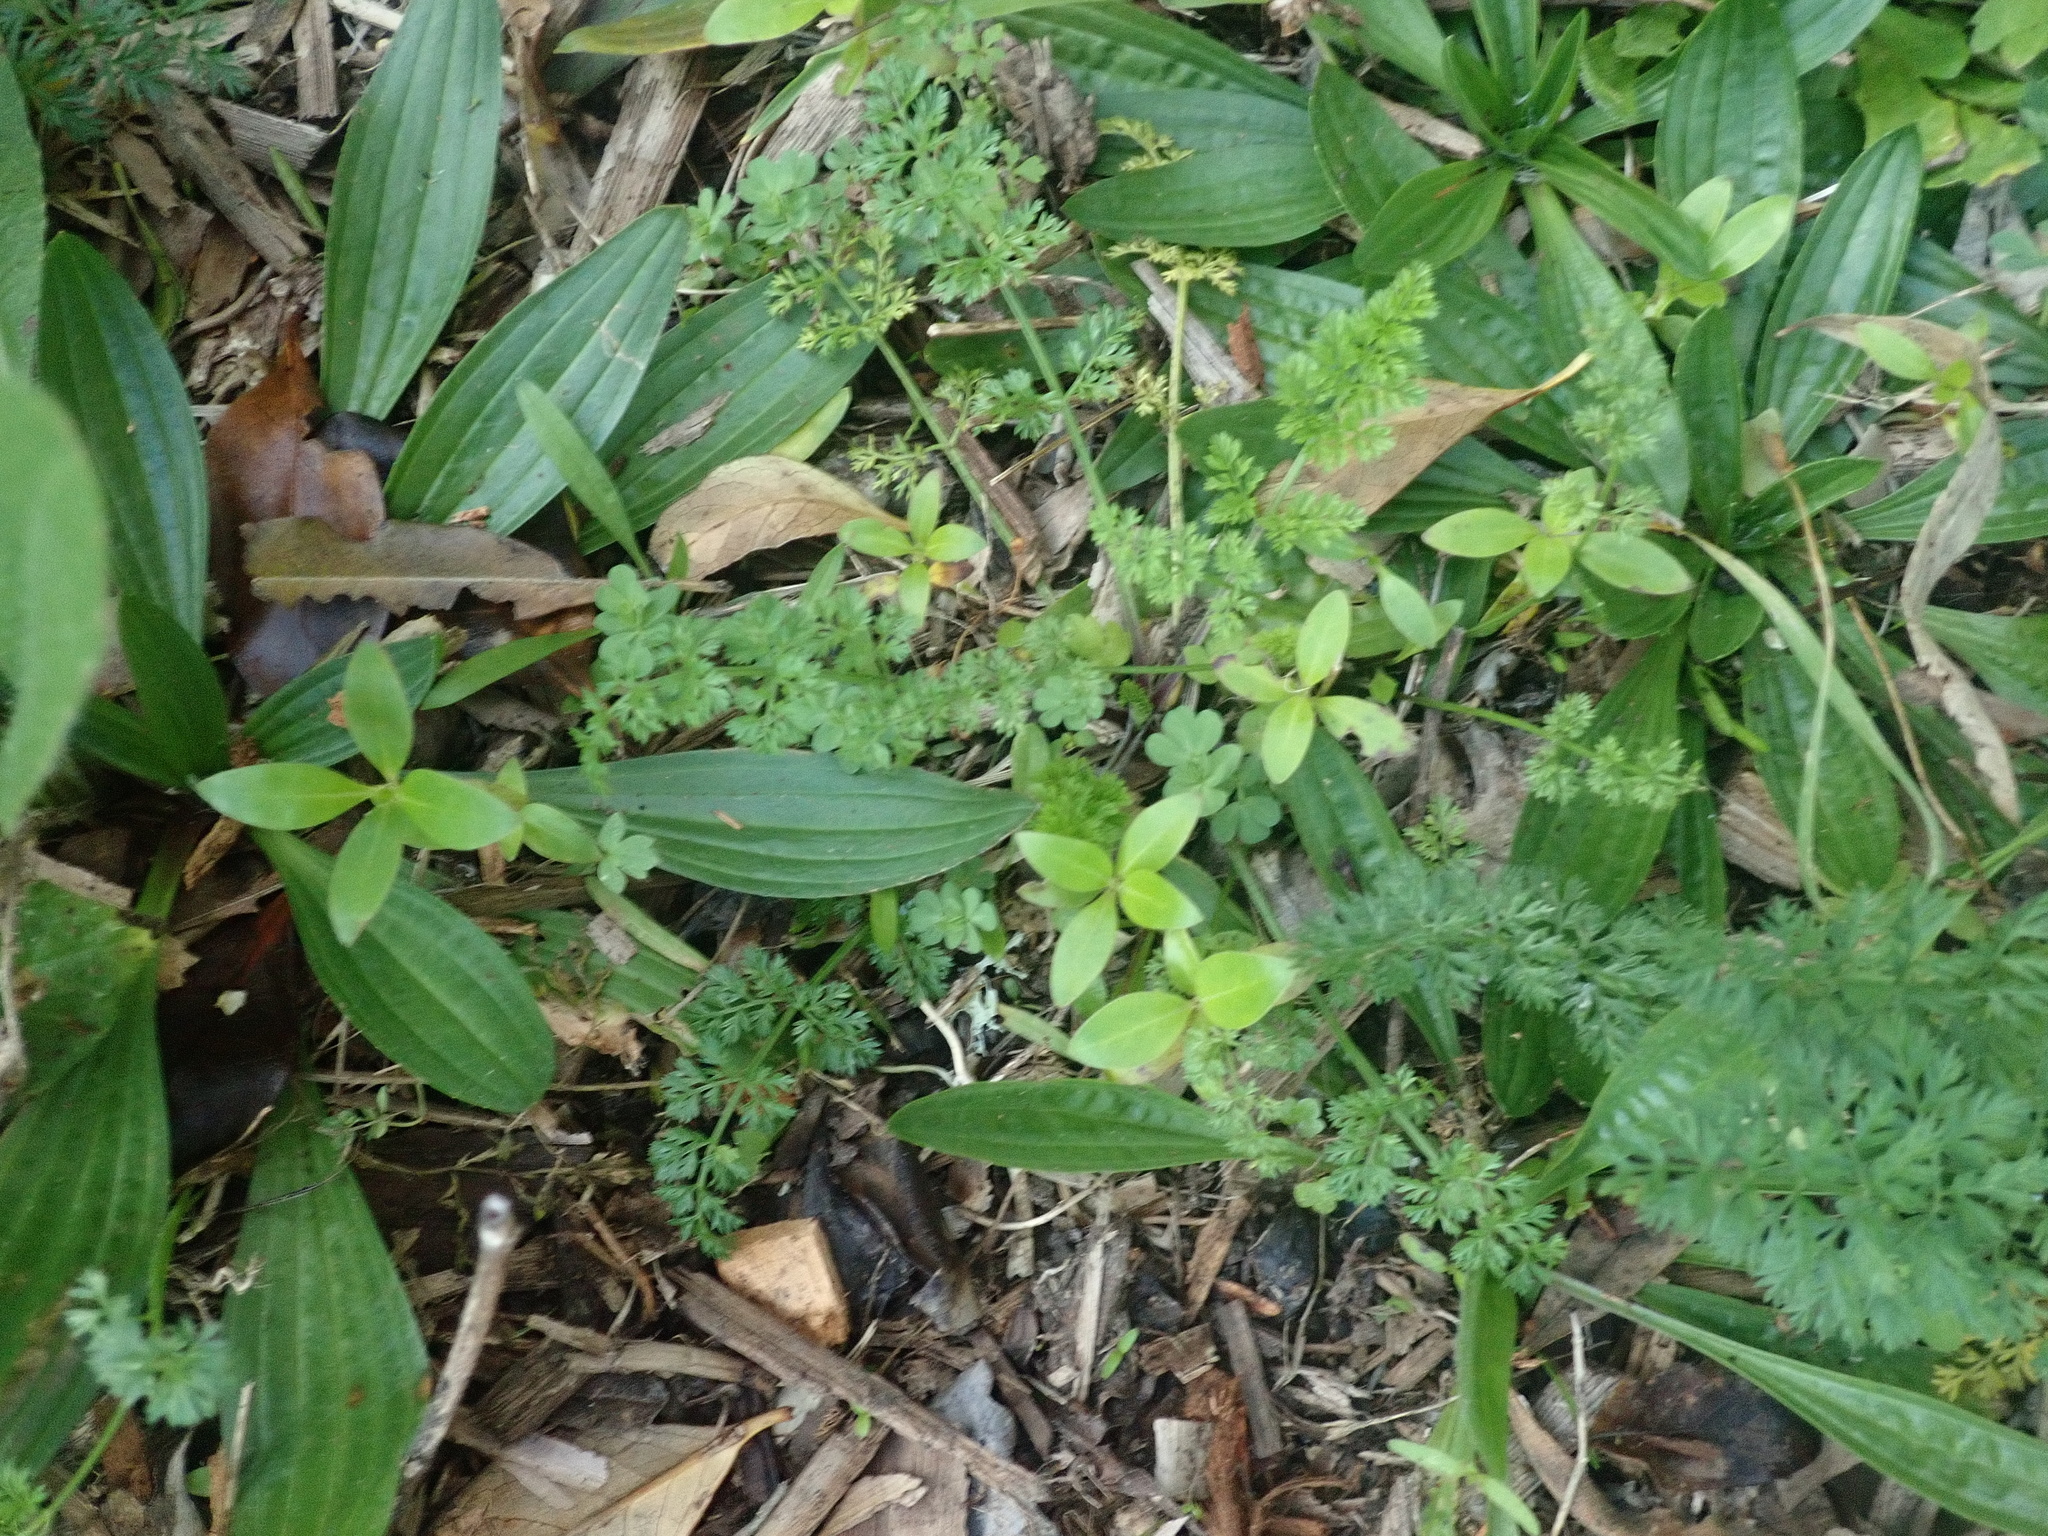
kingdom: Plantae
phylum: Tracheophyta
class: Magnoliopsida
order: Gentianales
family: Rubiaceae
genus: Coprosma
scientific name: Coprosma robusta
